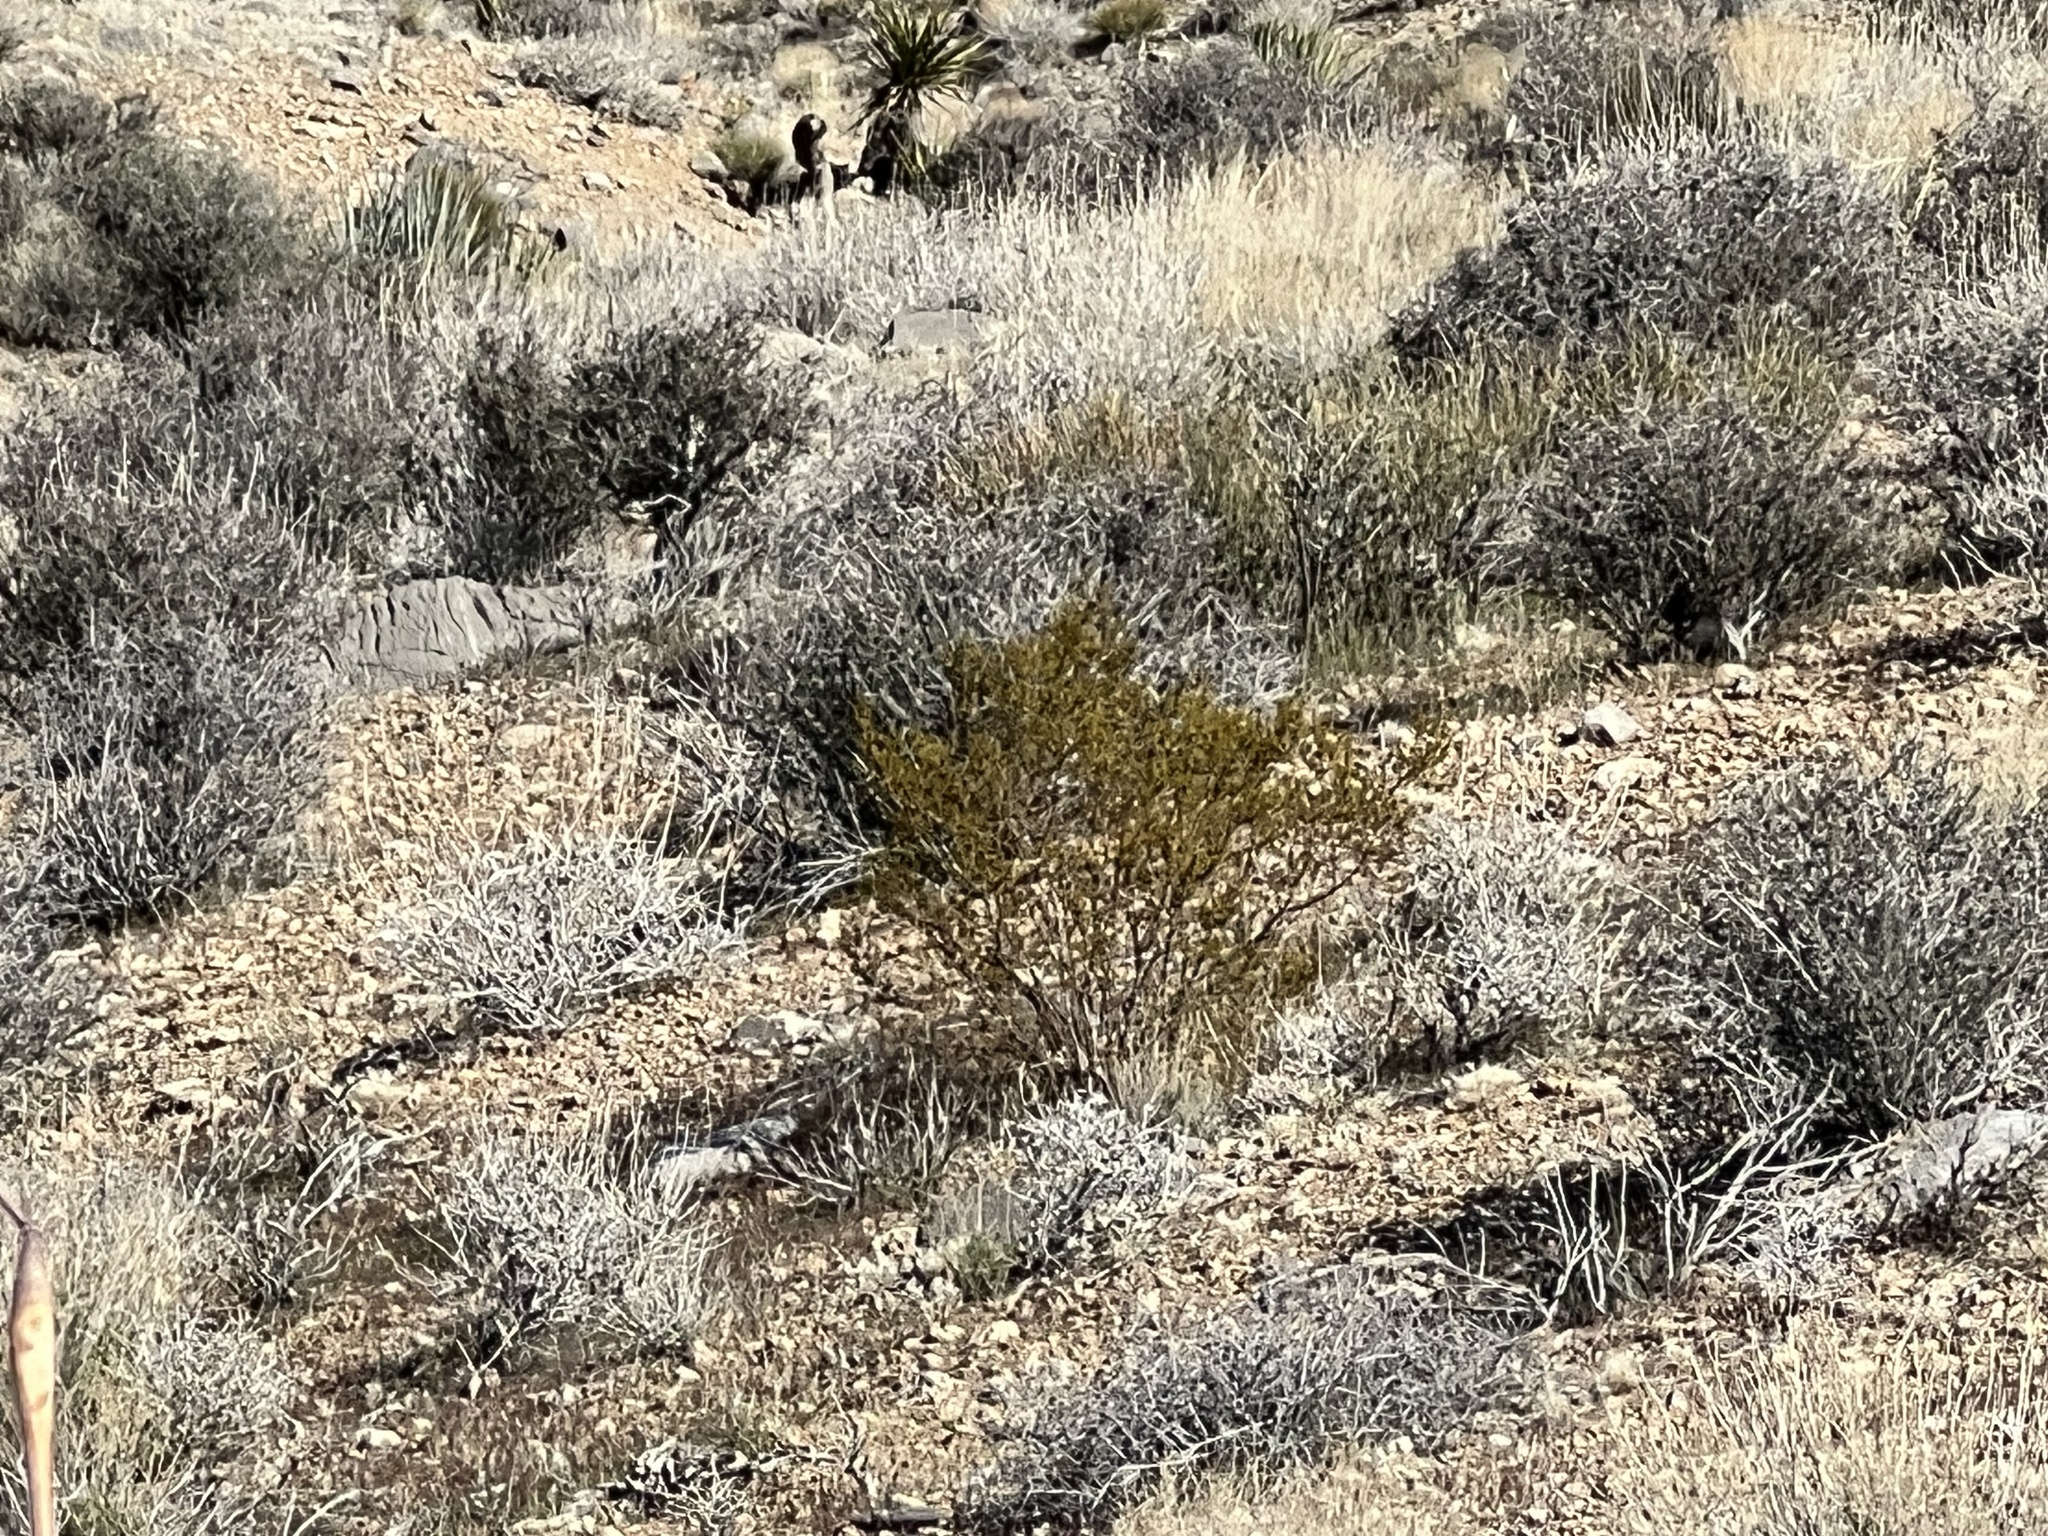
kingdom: Plantae
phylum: Tracheophyta
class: Magnoliopsida
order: Zygophyllales
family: Zygophyllaceae
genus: Larrea
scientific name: Larrea tridentata
